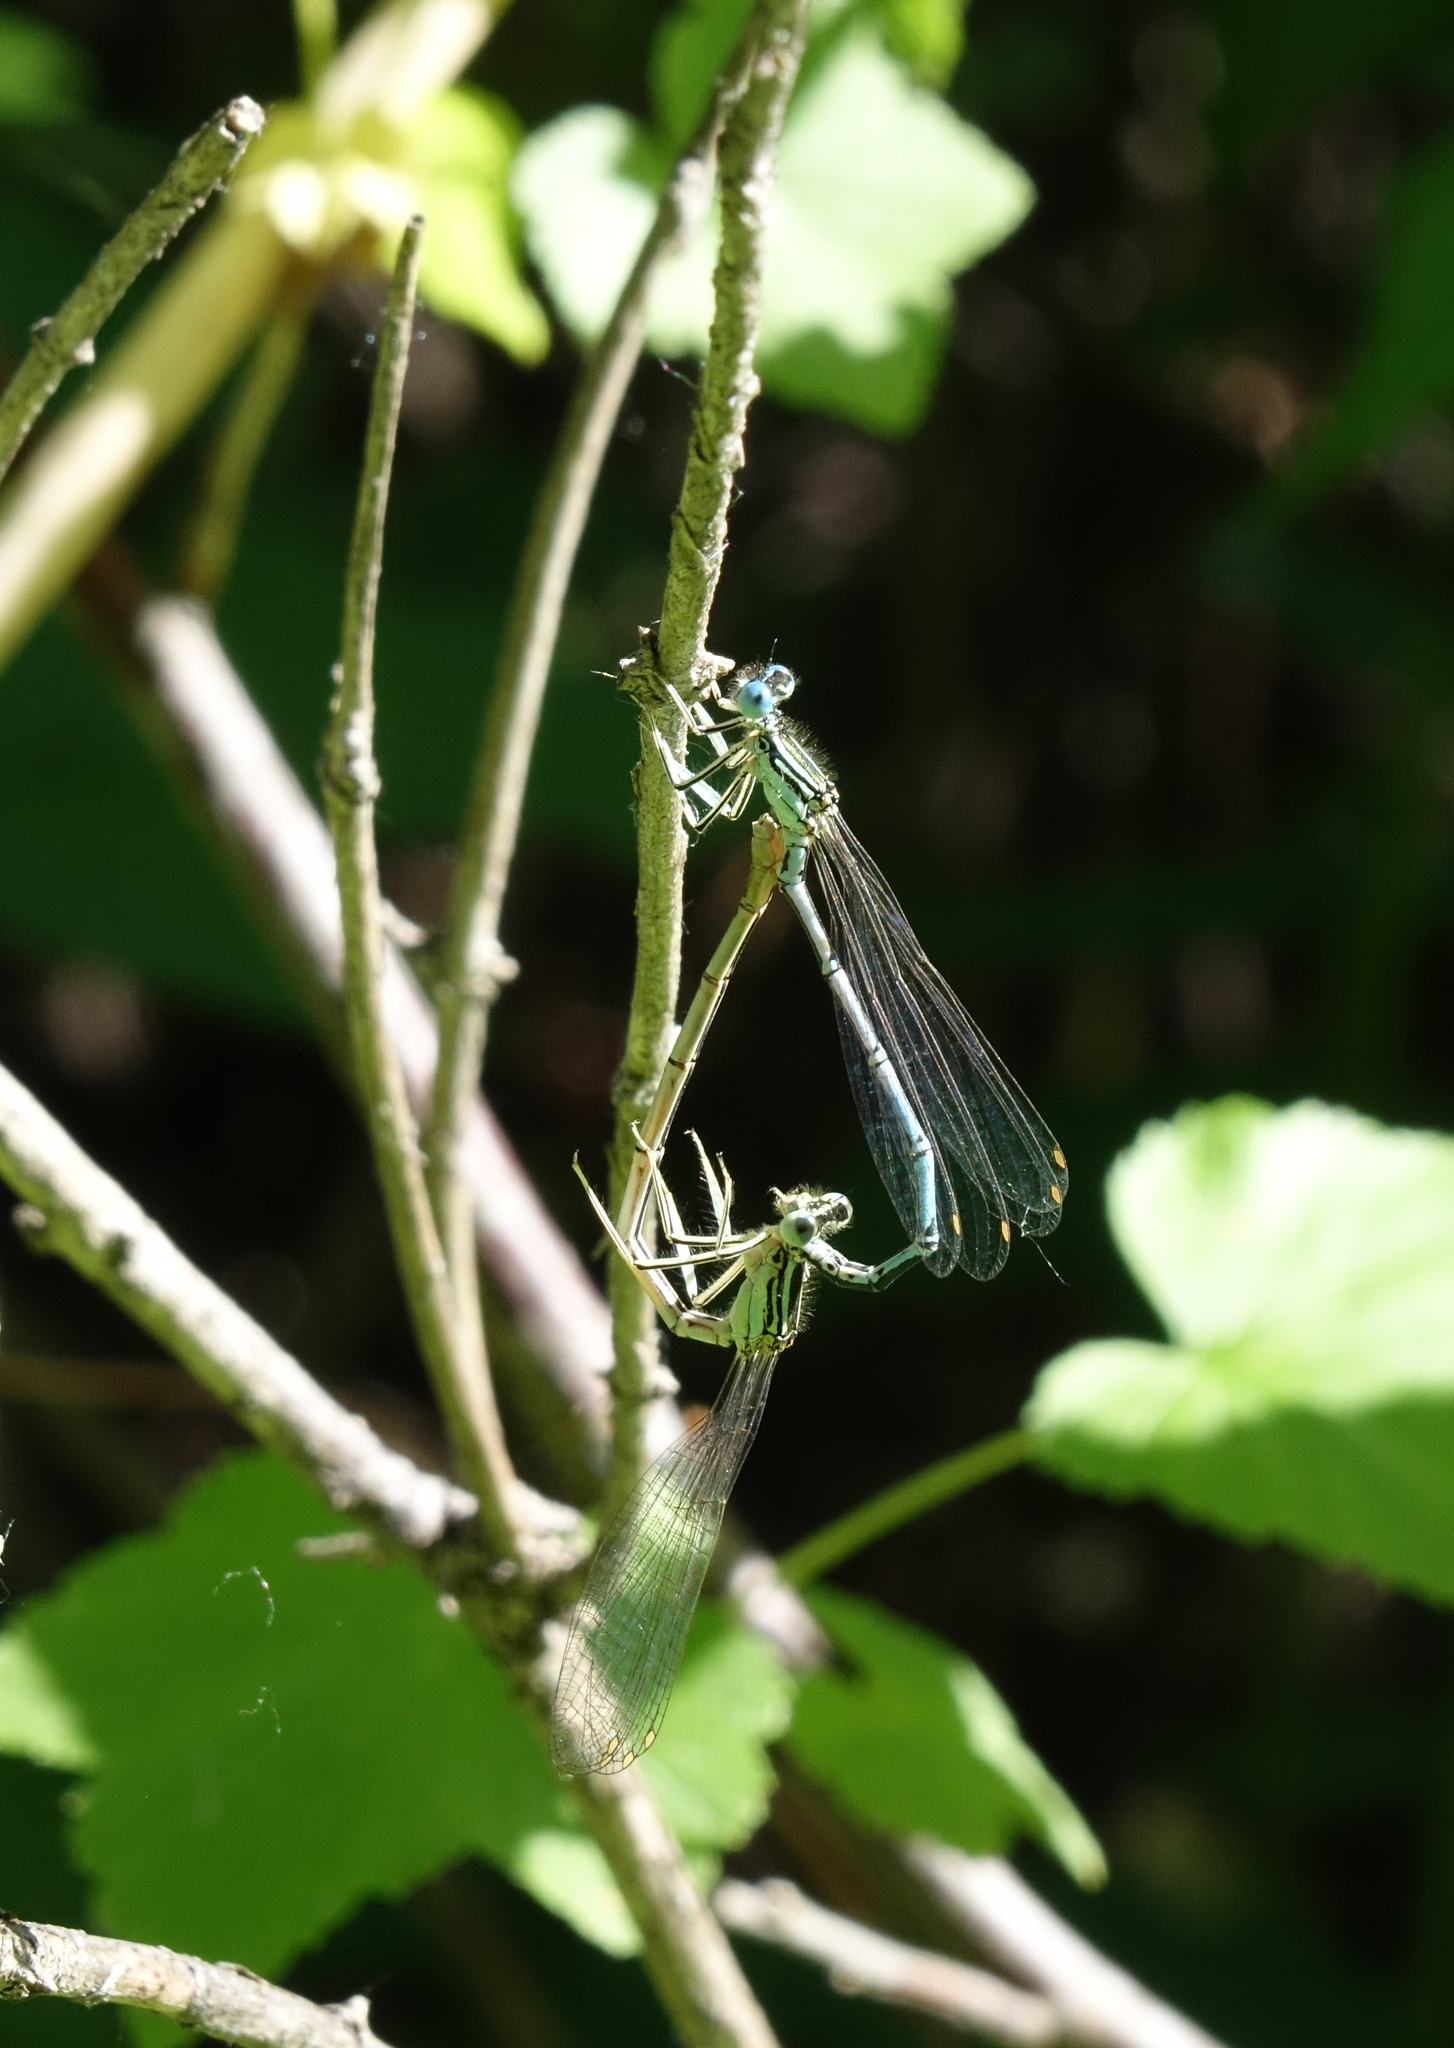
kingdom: Animalia
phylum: Arthropoda
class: Insecta
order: Odonata
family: Platycnemididae
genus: Platycnemis
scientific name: Platycnemis pennipes
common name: White-legged damselfly
